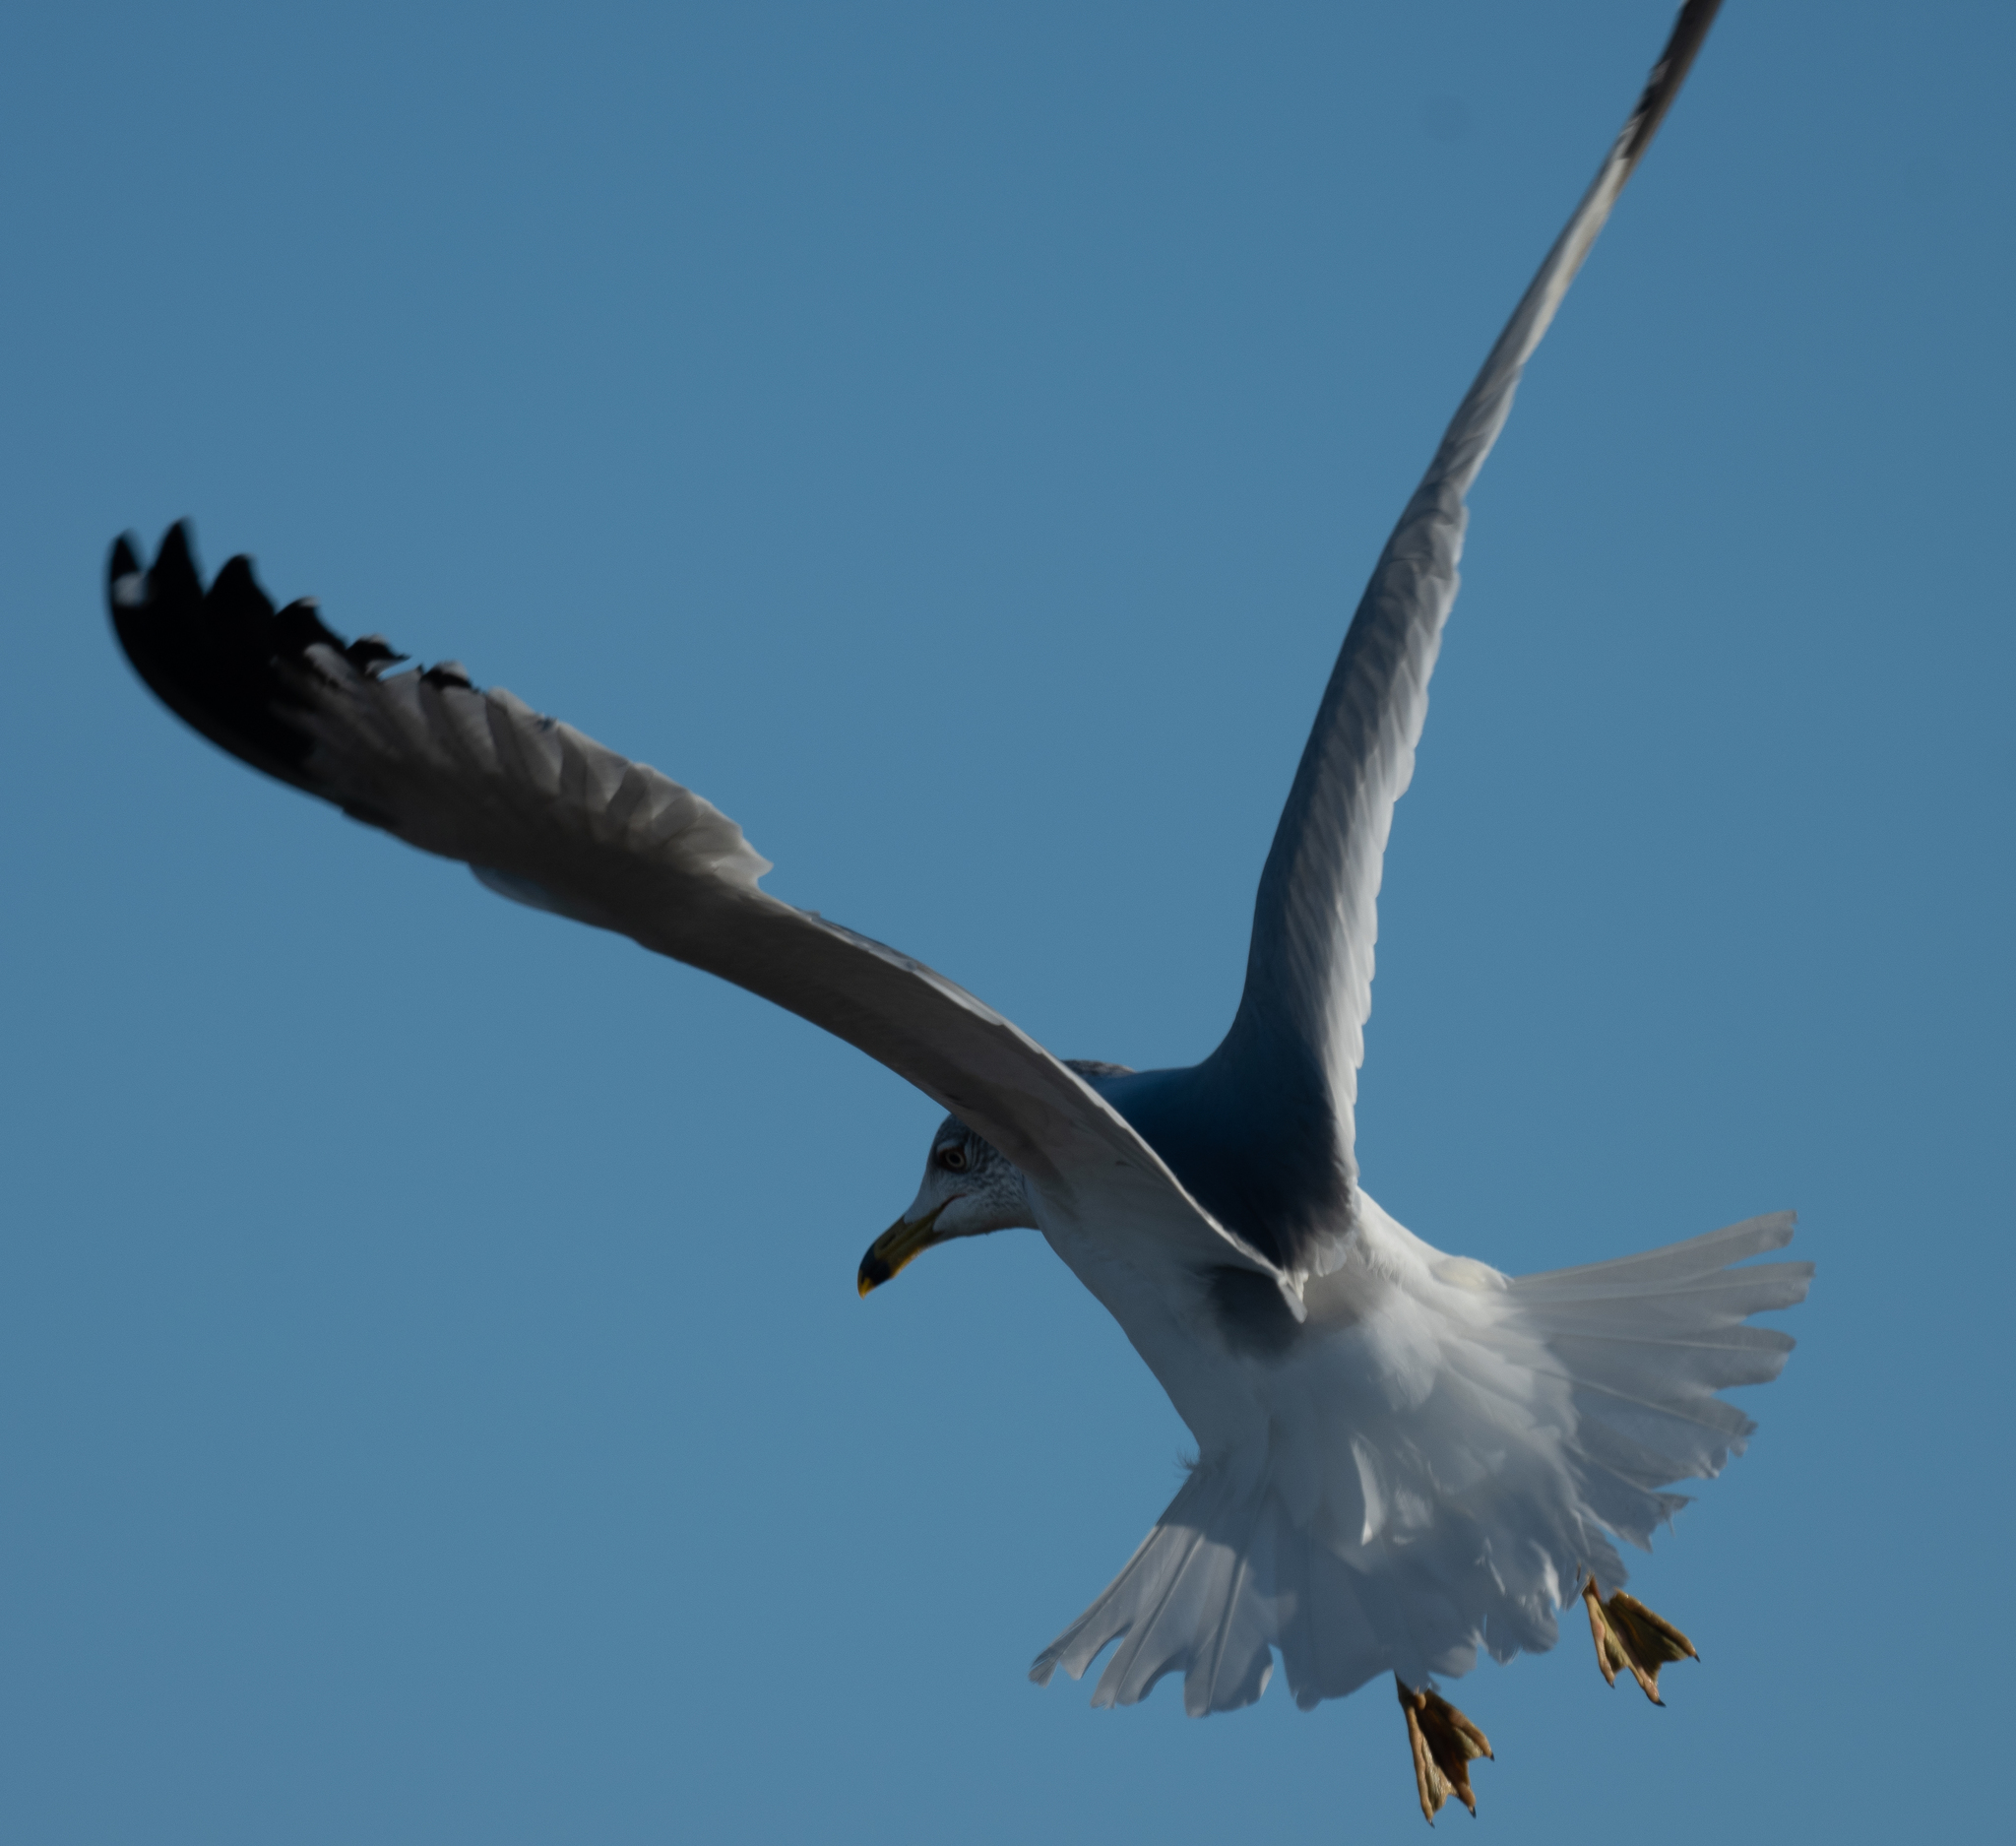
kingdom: Animalia
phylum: Chordata
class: Aves
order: Charadriiformes
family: Laridae
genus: Larus
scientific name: Larus delawarensis
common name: Ring-billed gull
